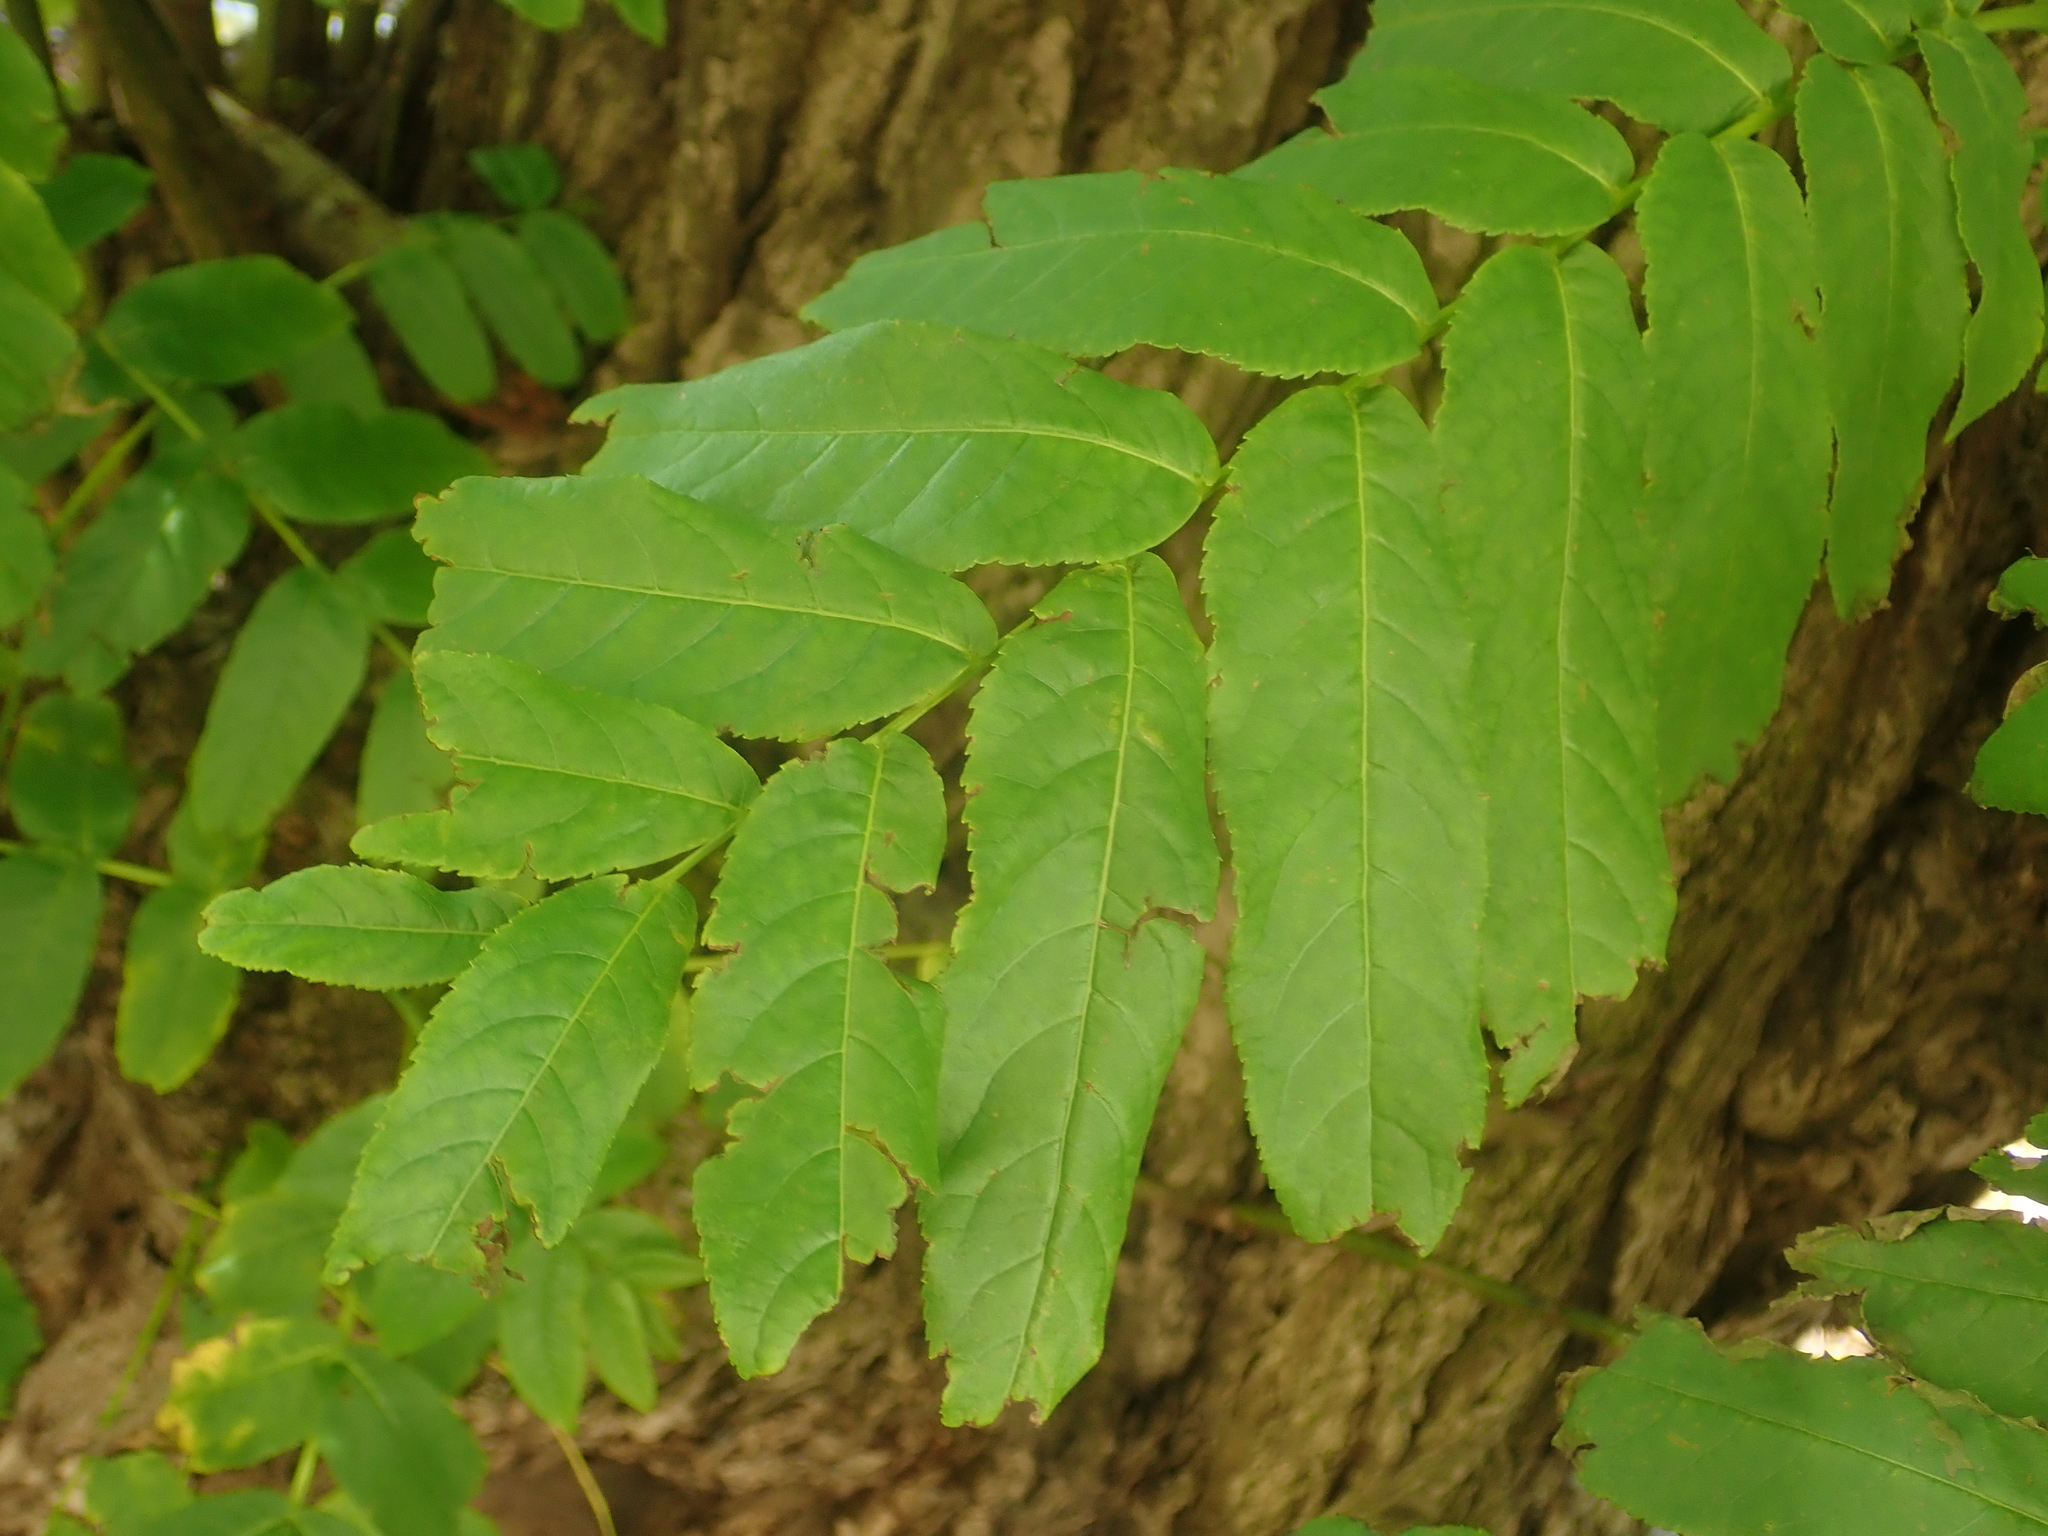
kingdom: Plantae
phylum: Tracheophyta
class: Magnoliopsida
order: Fagales
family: Juglandaceae
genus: Pterocarya
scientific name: Pterocarya fraxinifolia
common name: Caucasian wingnut
